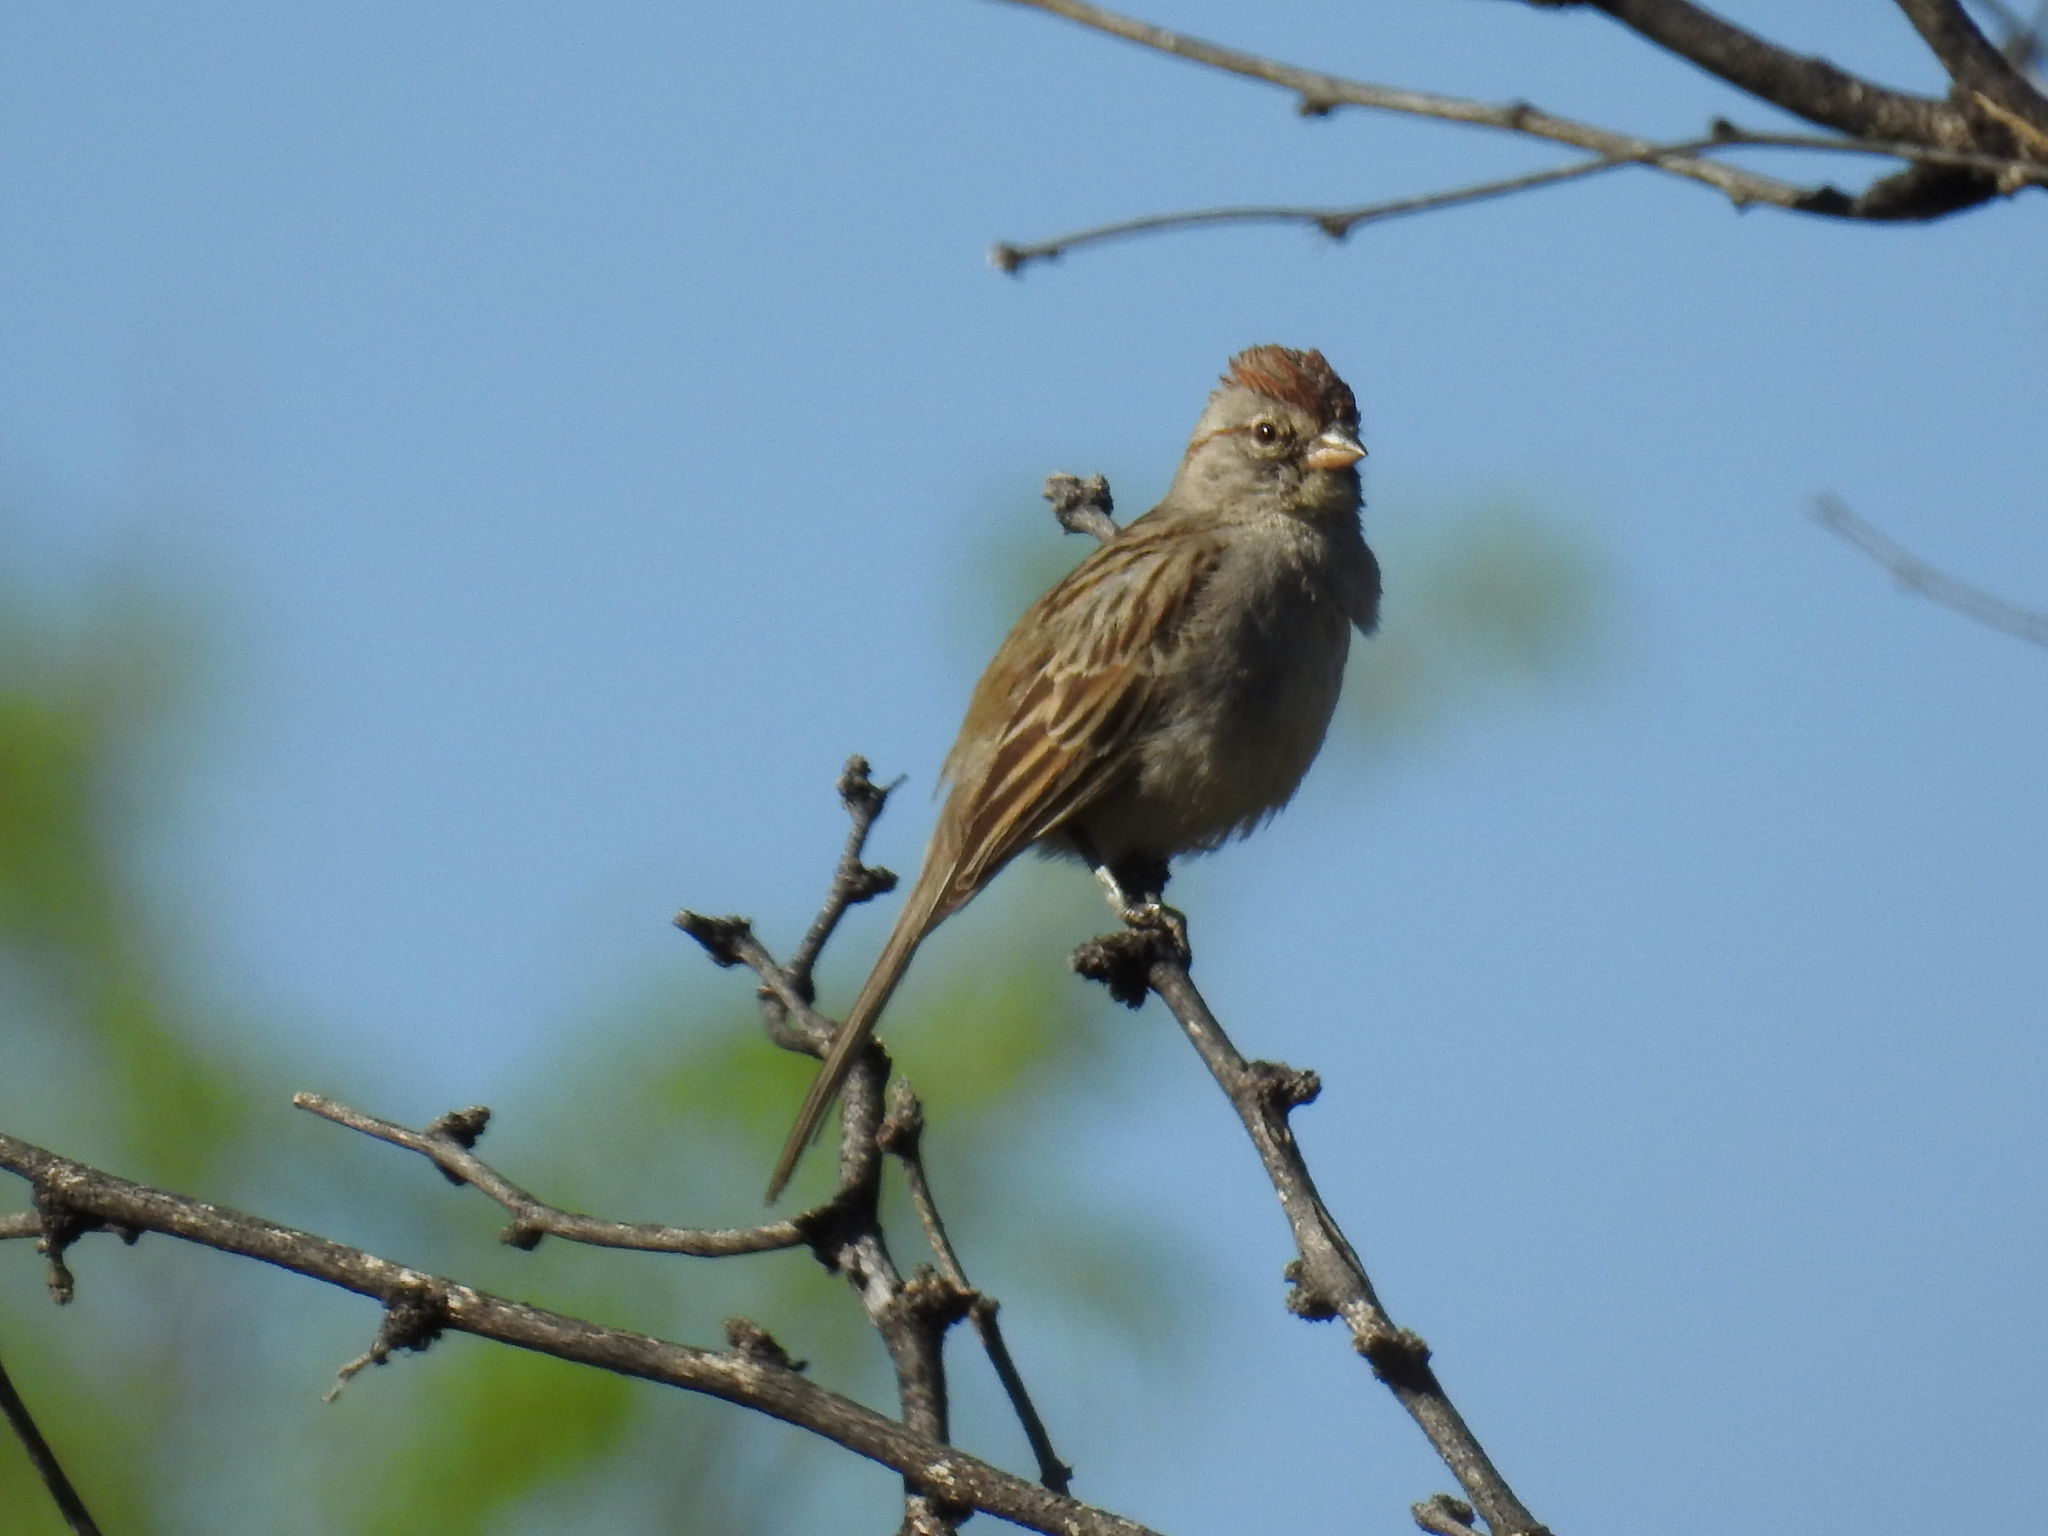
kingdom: Animalia
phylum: Chordata
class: Aves
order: Passeriformes
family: Passerellidae
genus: Peucaea
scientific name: Peucaea carpalis
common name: Rufous-winged sparrow
